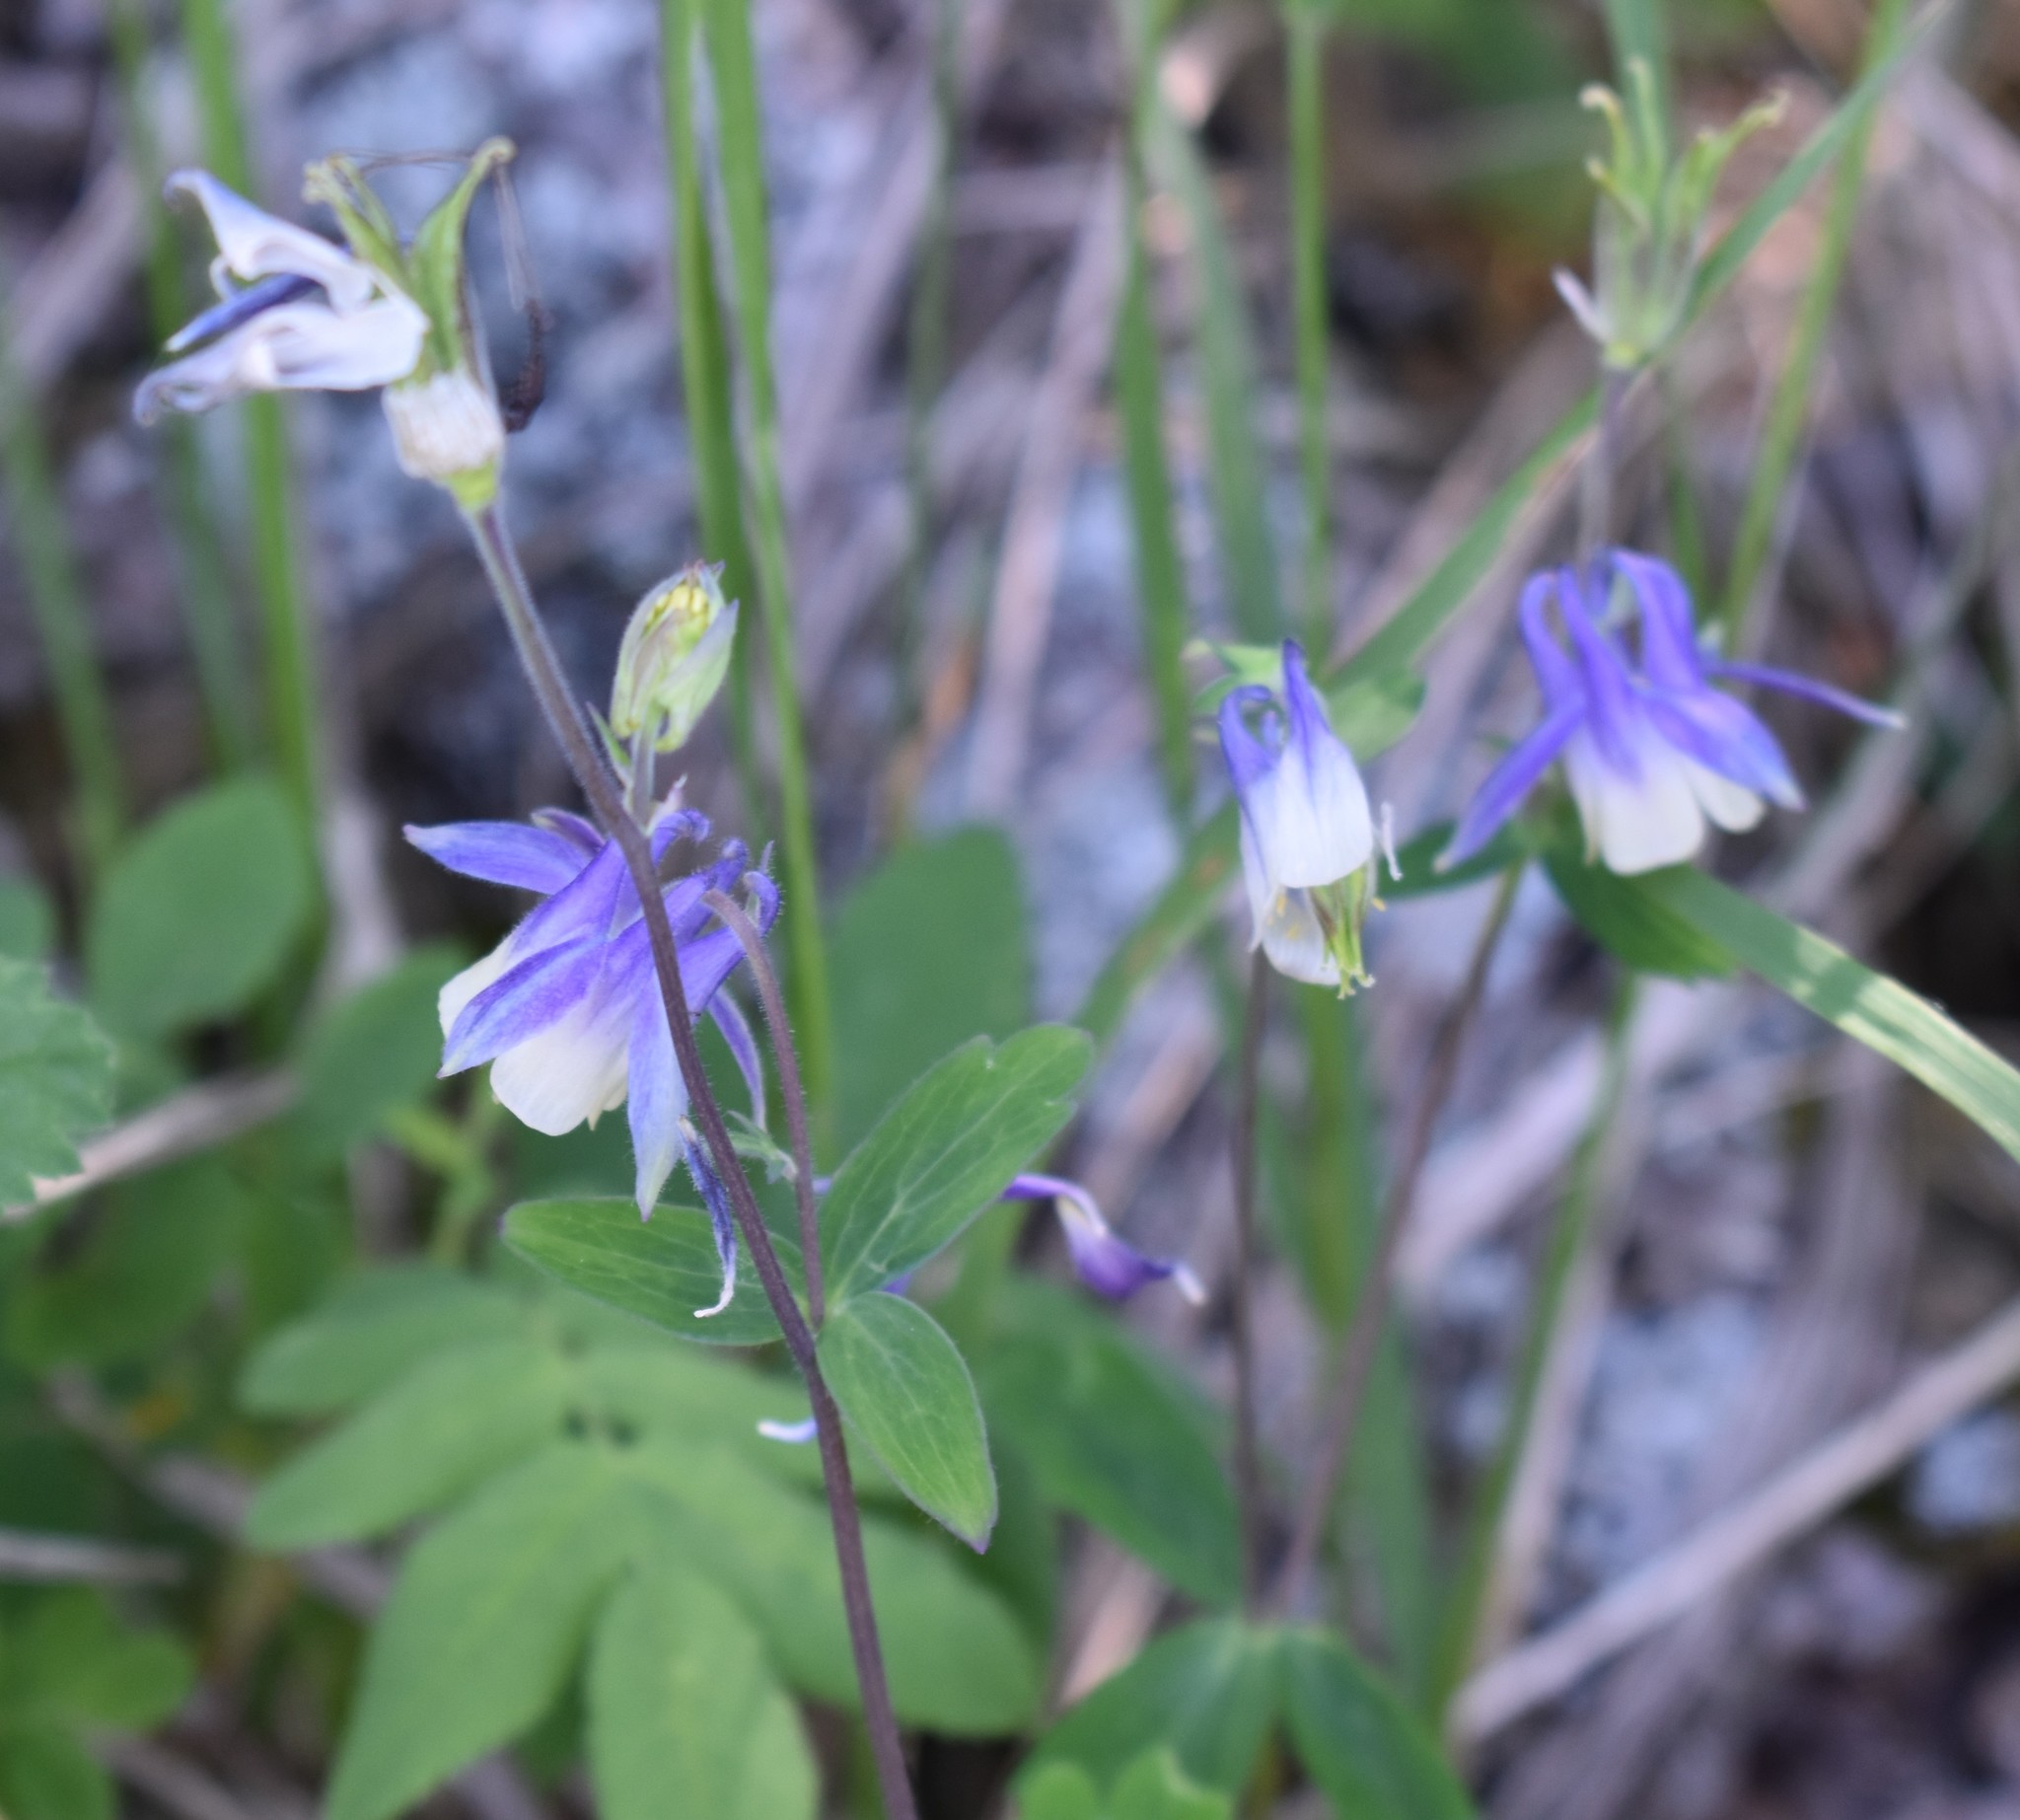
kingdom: Plantae
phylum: Tracheophyta
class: Magnoliopsida
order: Ranunculales
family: Ranunculaceae
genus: Aquilegia
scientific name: Aquilegia brevistyla
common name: Yukon columbine
